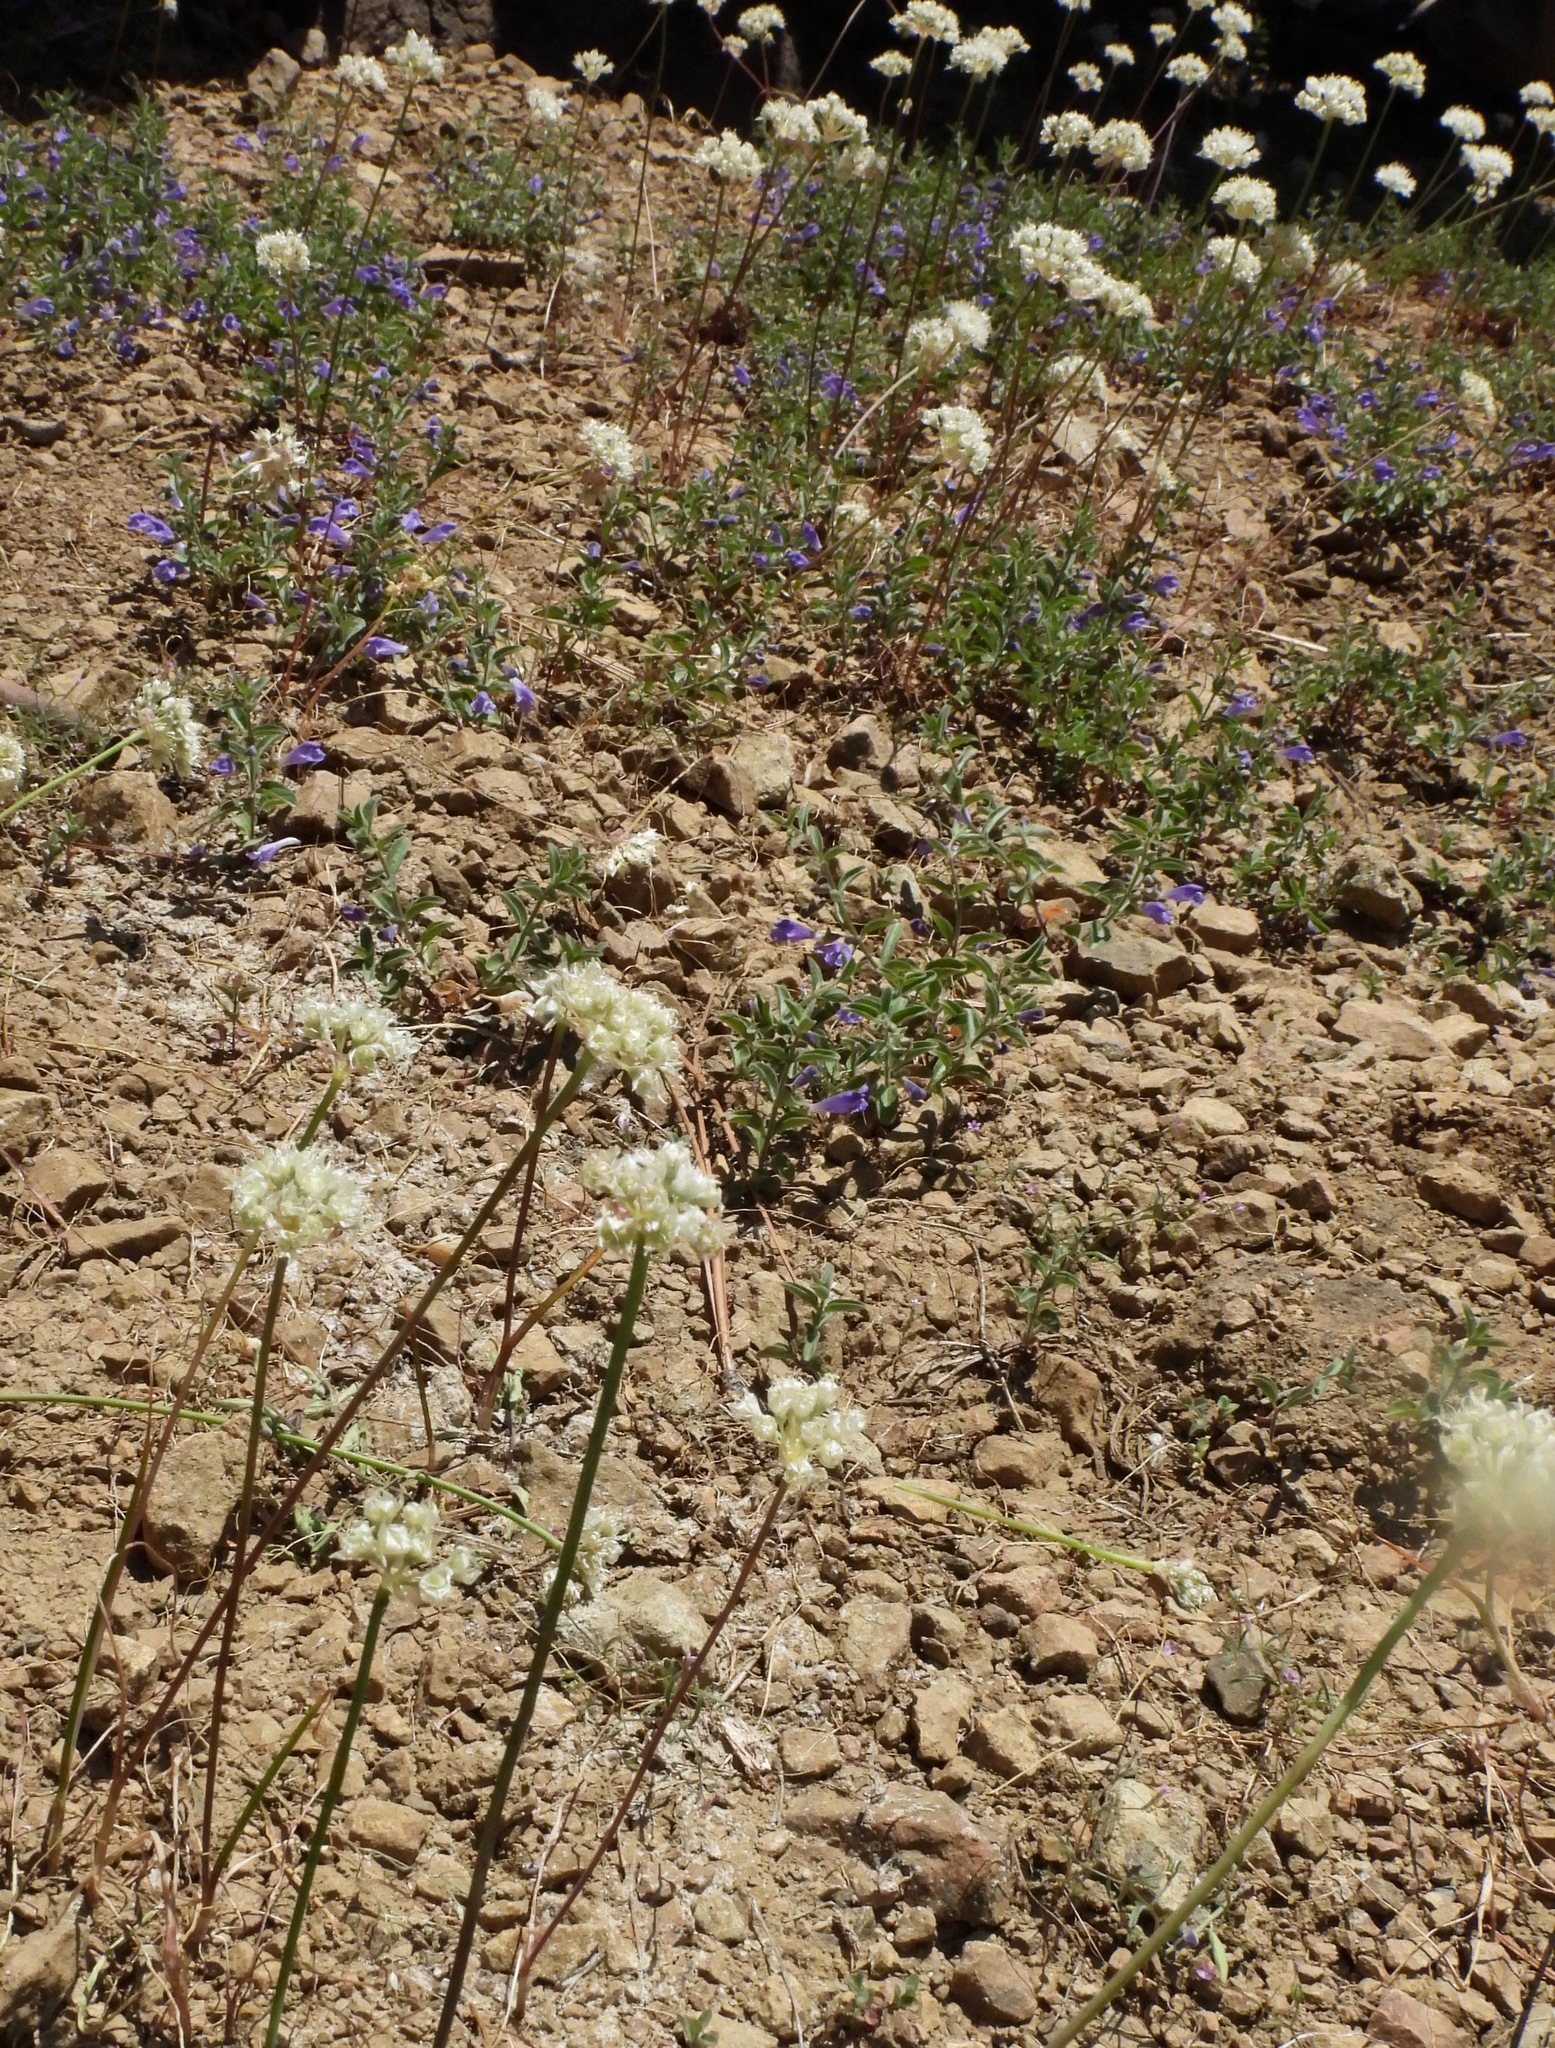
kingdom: Plantae
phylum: Tracheophyta
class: Liliopsida
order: Asparagales
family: Amaryllidaceae
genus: Allium
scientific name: Allium amplectens
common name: Narrow-leaved onion
